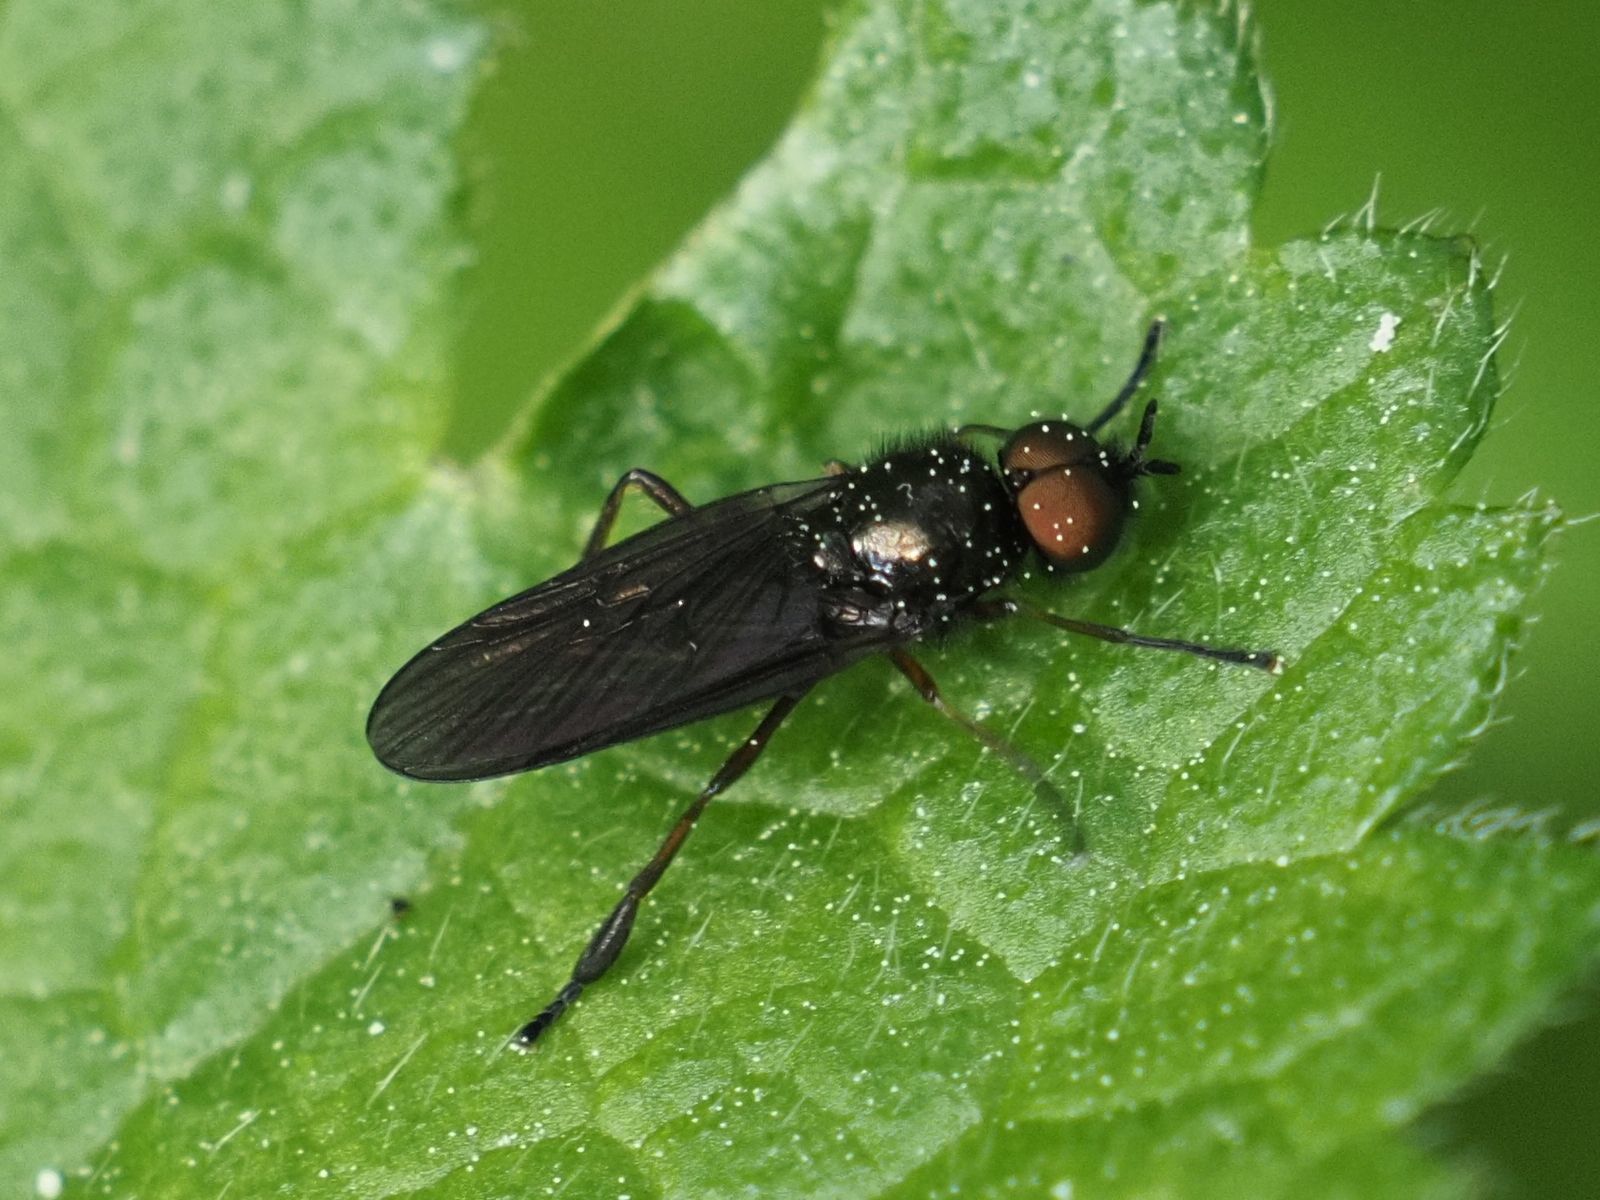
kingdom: Animalia
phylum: Arthropoda
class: Insecta
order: Diptera
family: Stratiomyidae
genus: Beris
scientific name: Beris chalybata
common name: Murky-legged black legionnaire
